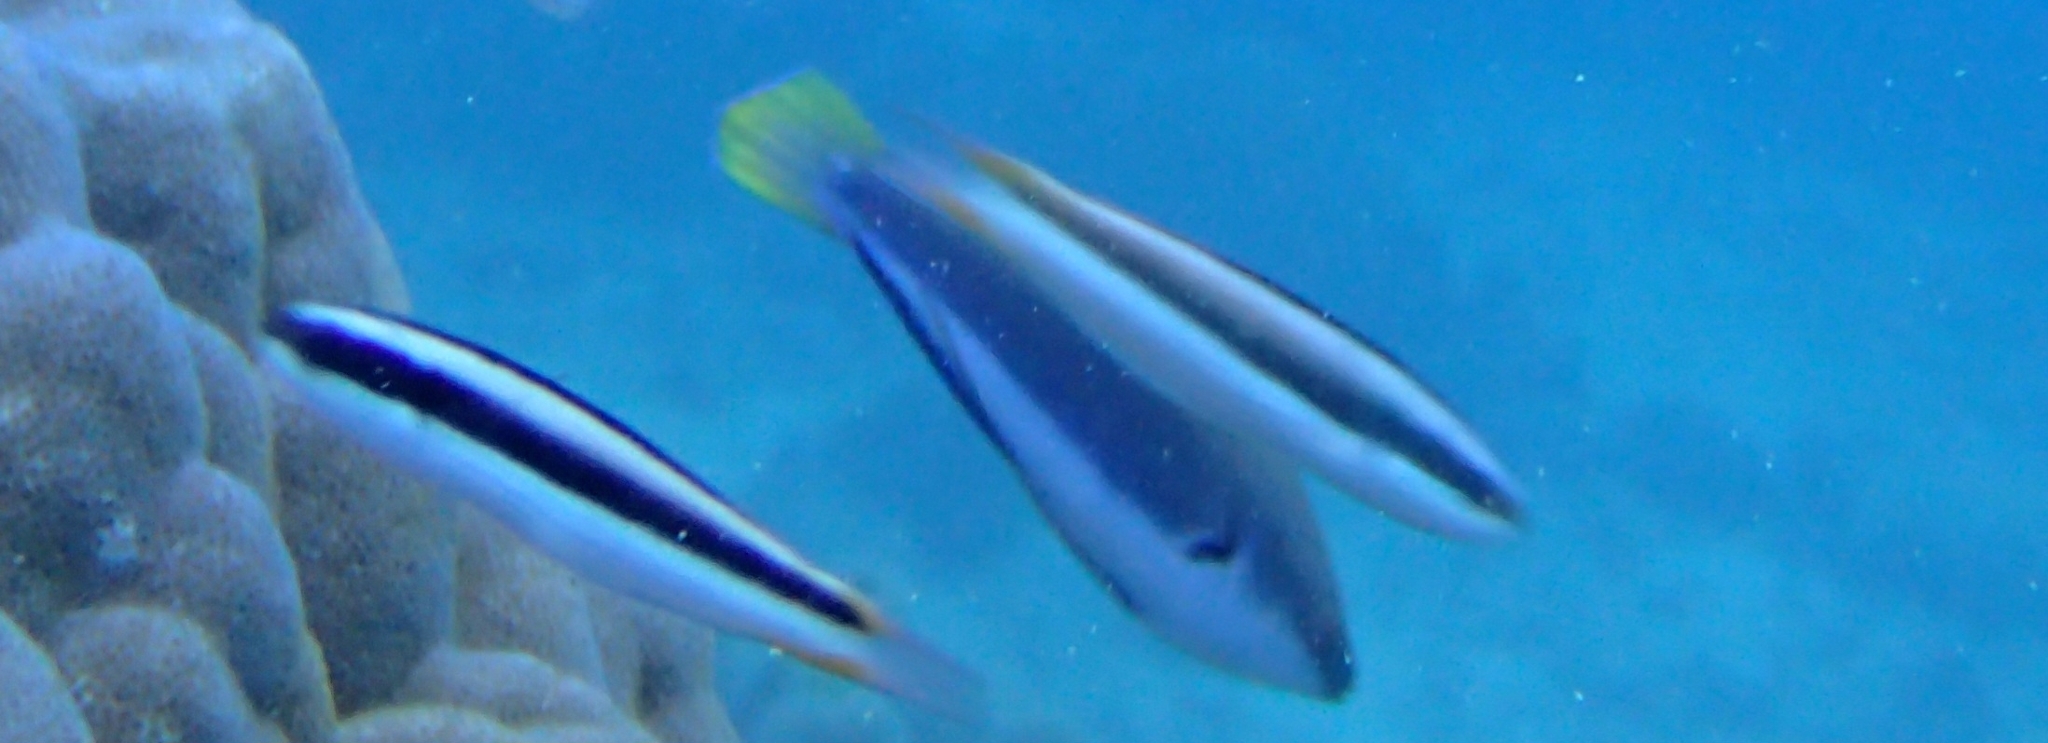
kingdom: Animalia
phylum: Chordata
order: Perciformes
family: Labridae
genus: Thalassoma
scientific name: Thalassoma amblycephalum
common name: Bluehead wrasse
